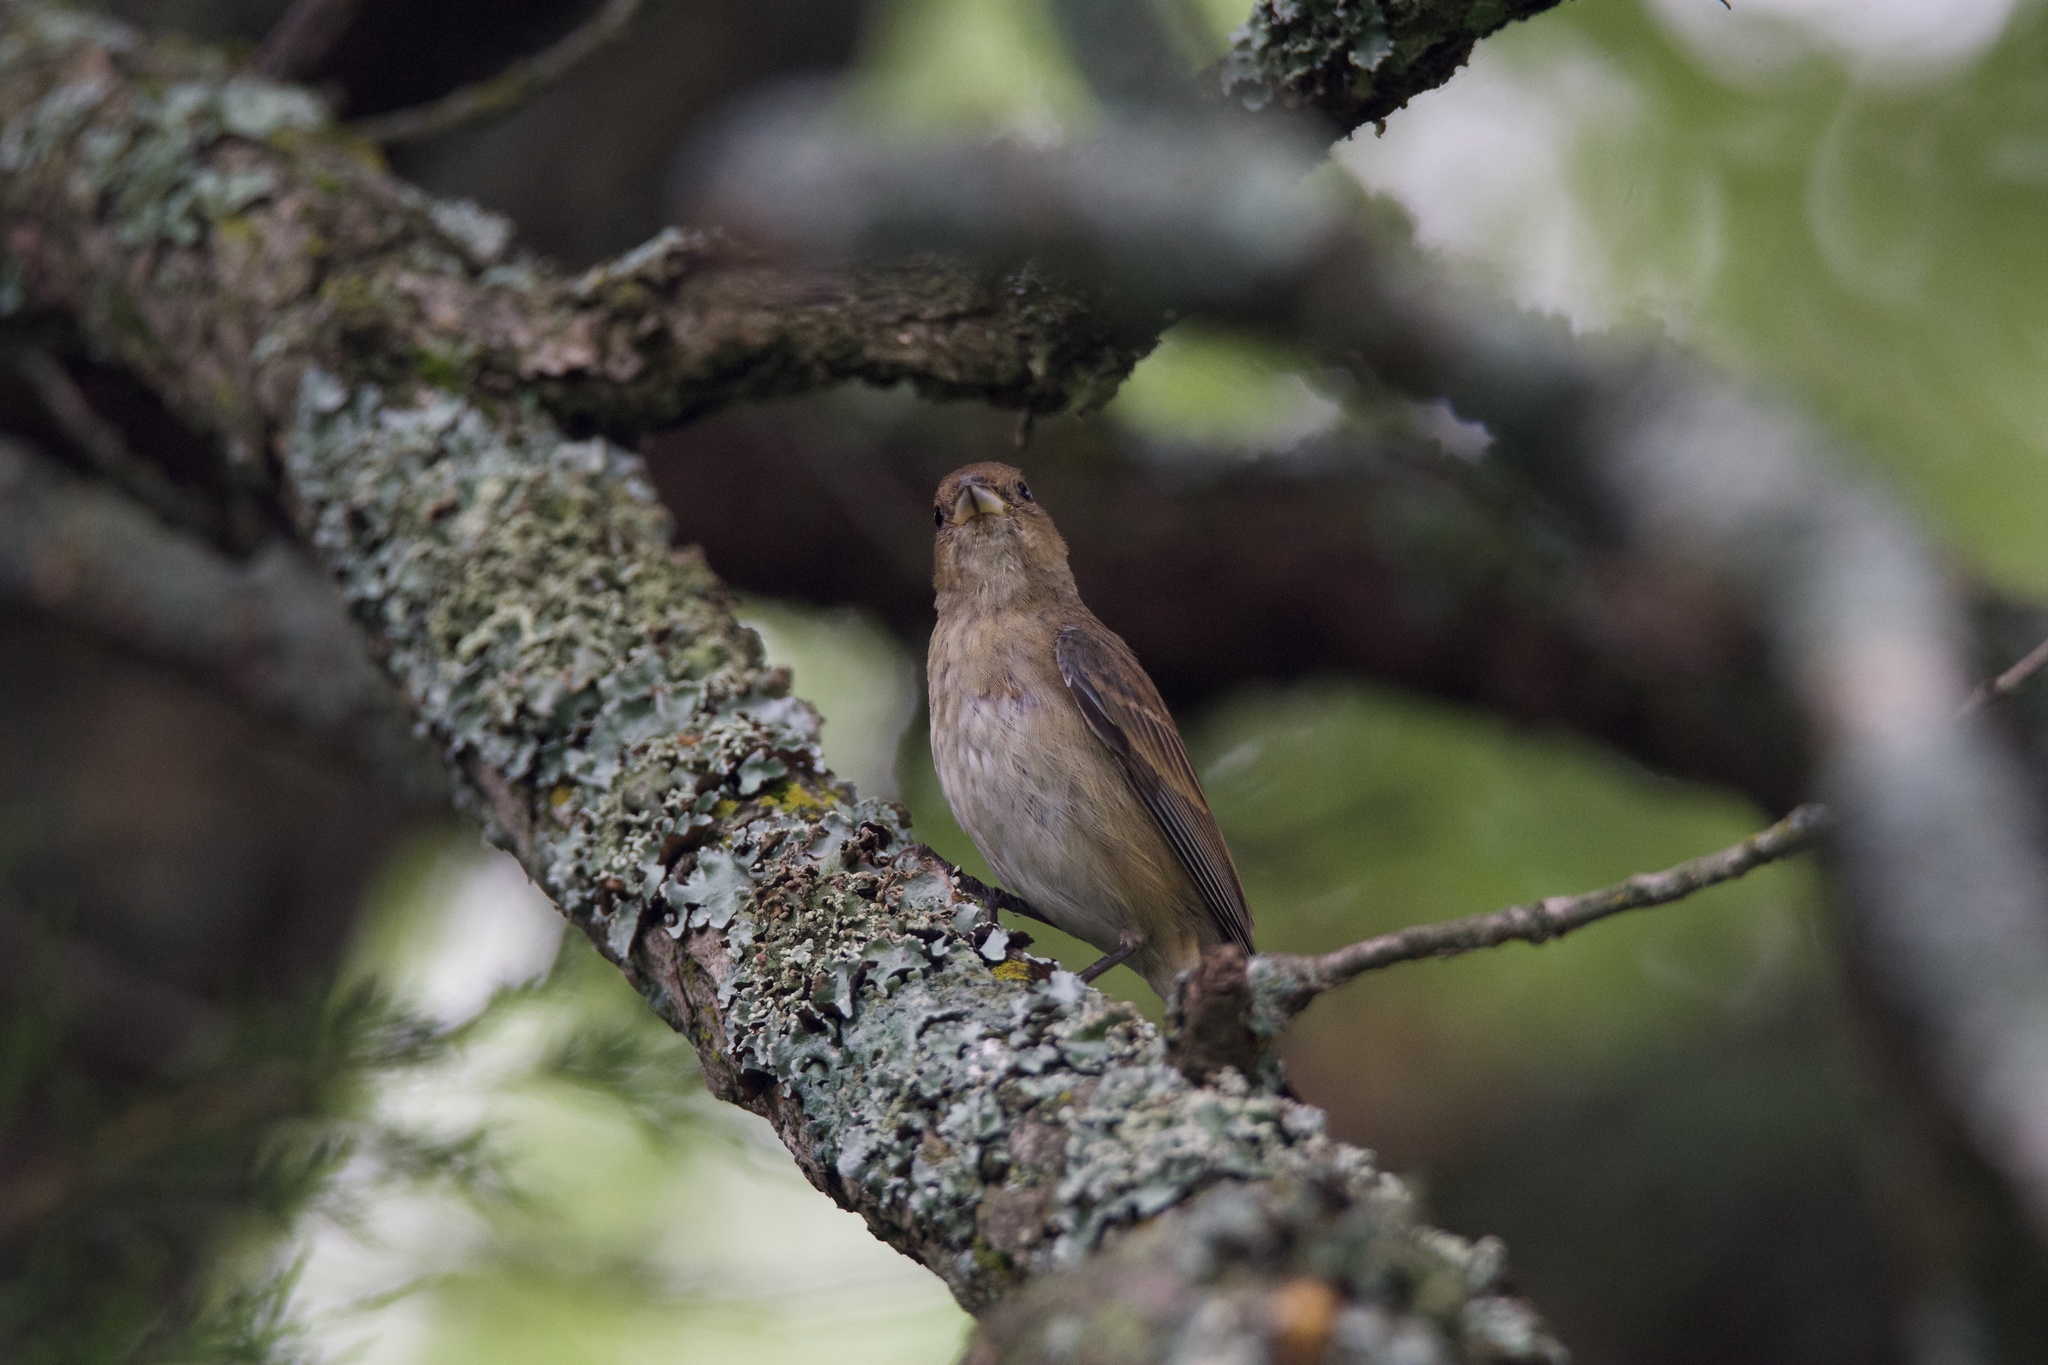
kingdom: Animalia
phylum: Chordata
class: Aves
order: Passeriformes
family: Cardinalidae
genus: Passerina
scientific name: Passerina cyanea
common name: Indigo bunting
